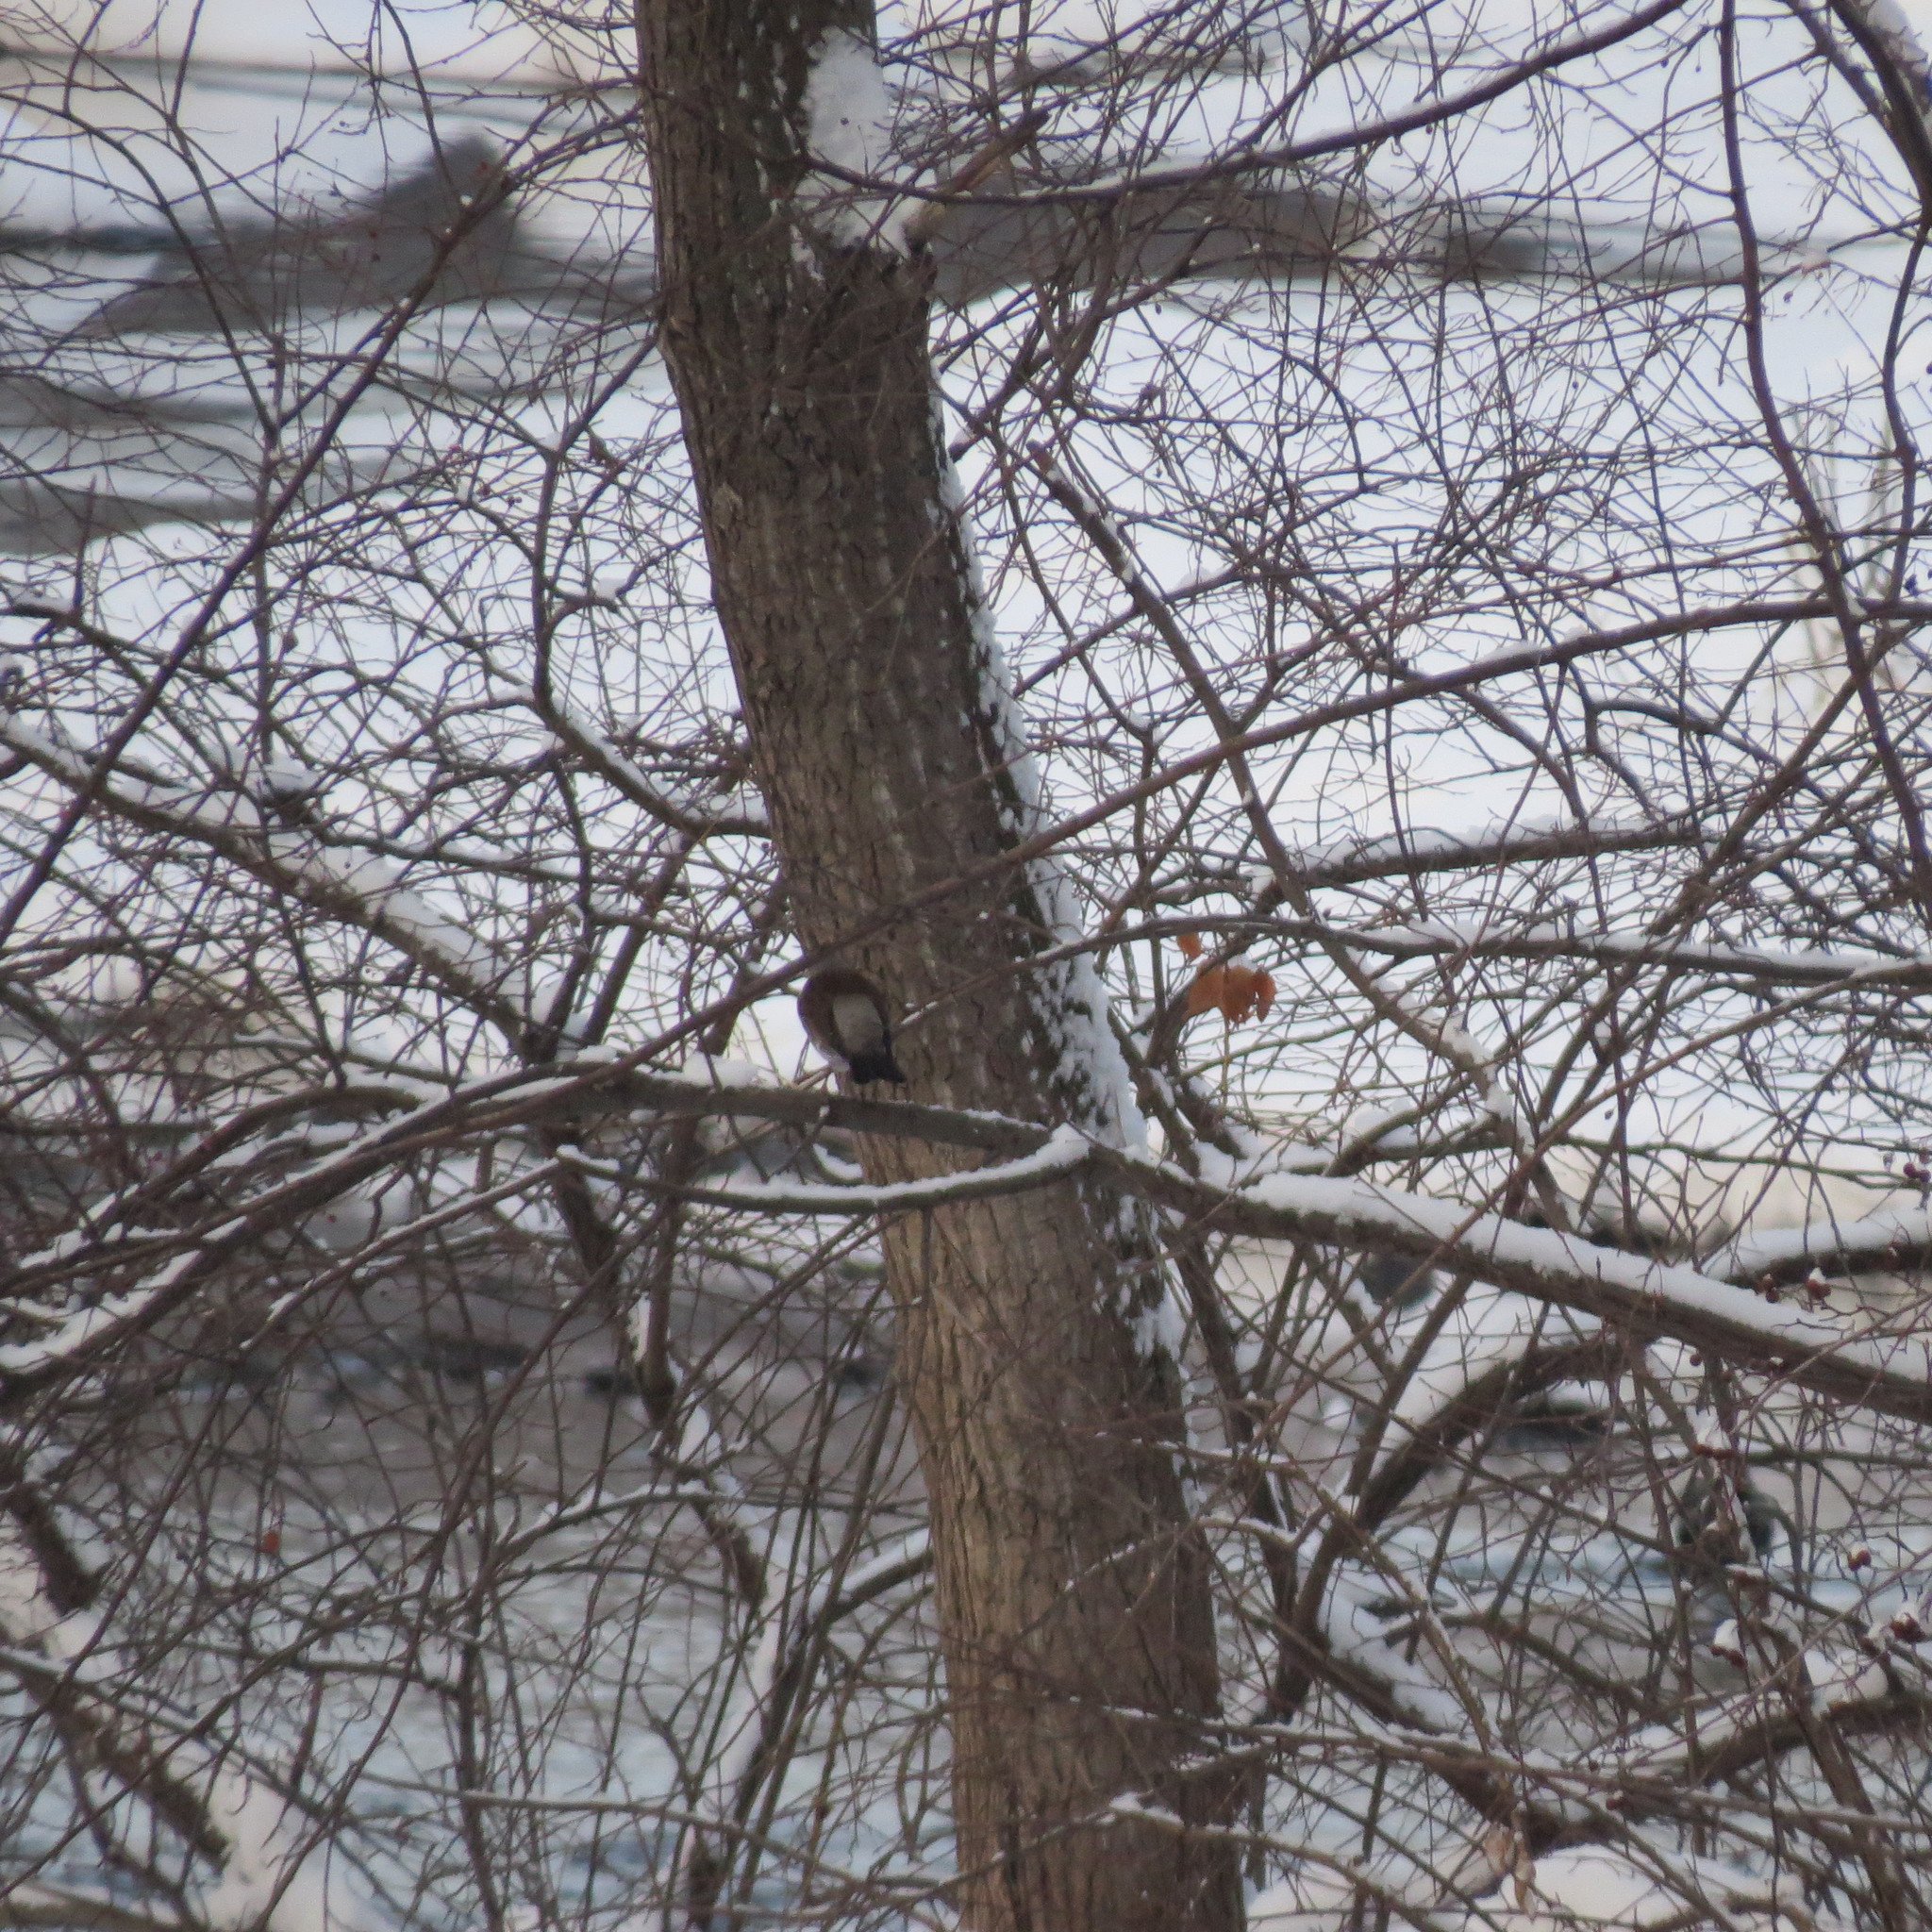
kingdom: Animalia
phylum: Chordata
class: Aves
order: Passeriformes
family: Turdidae
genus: Turdus
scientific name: Turdus pilaris
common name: Fieldfare
